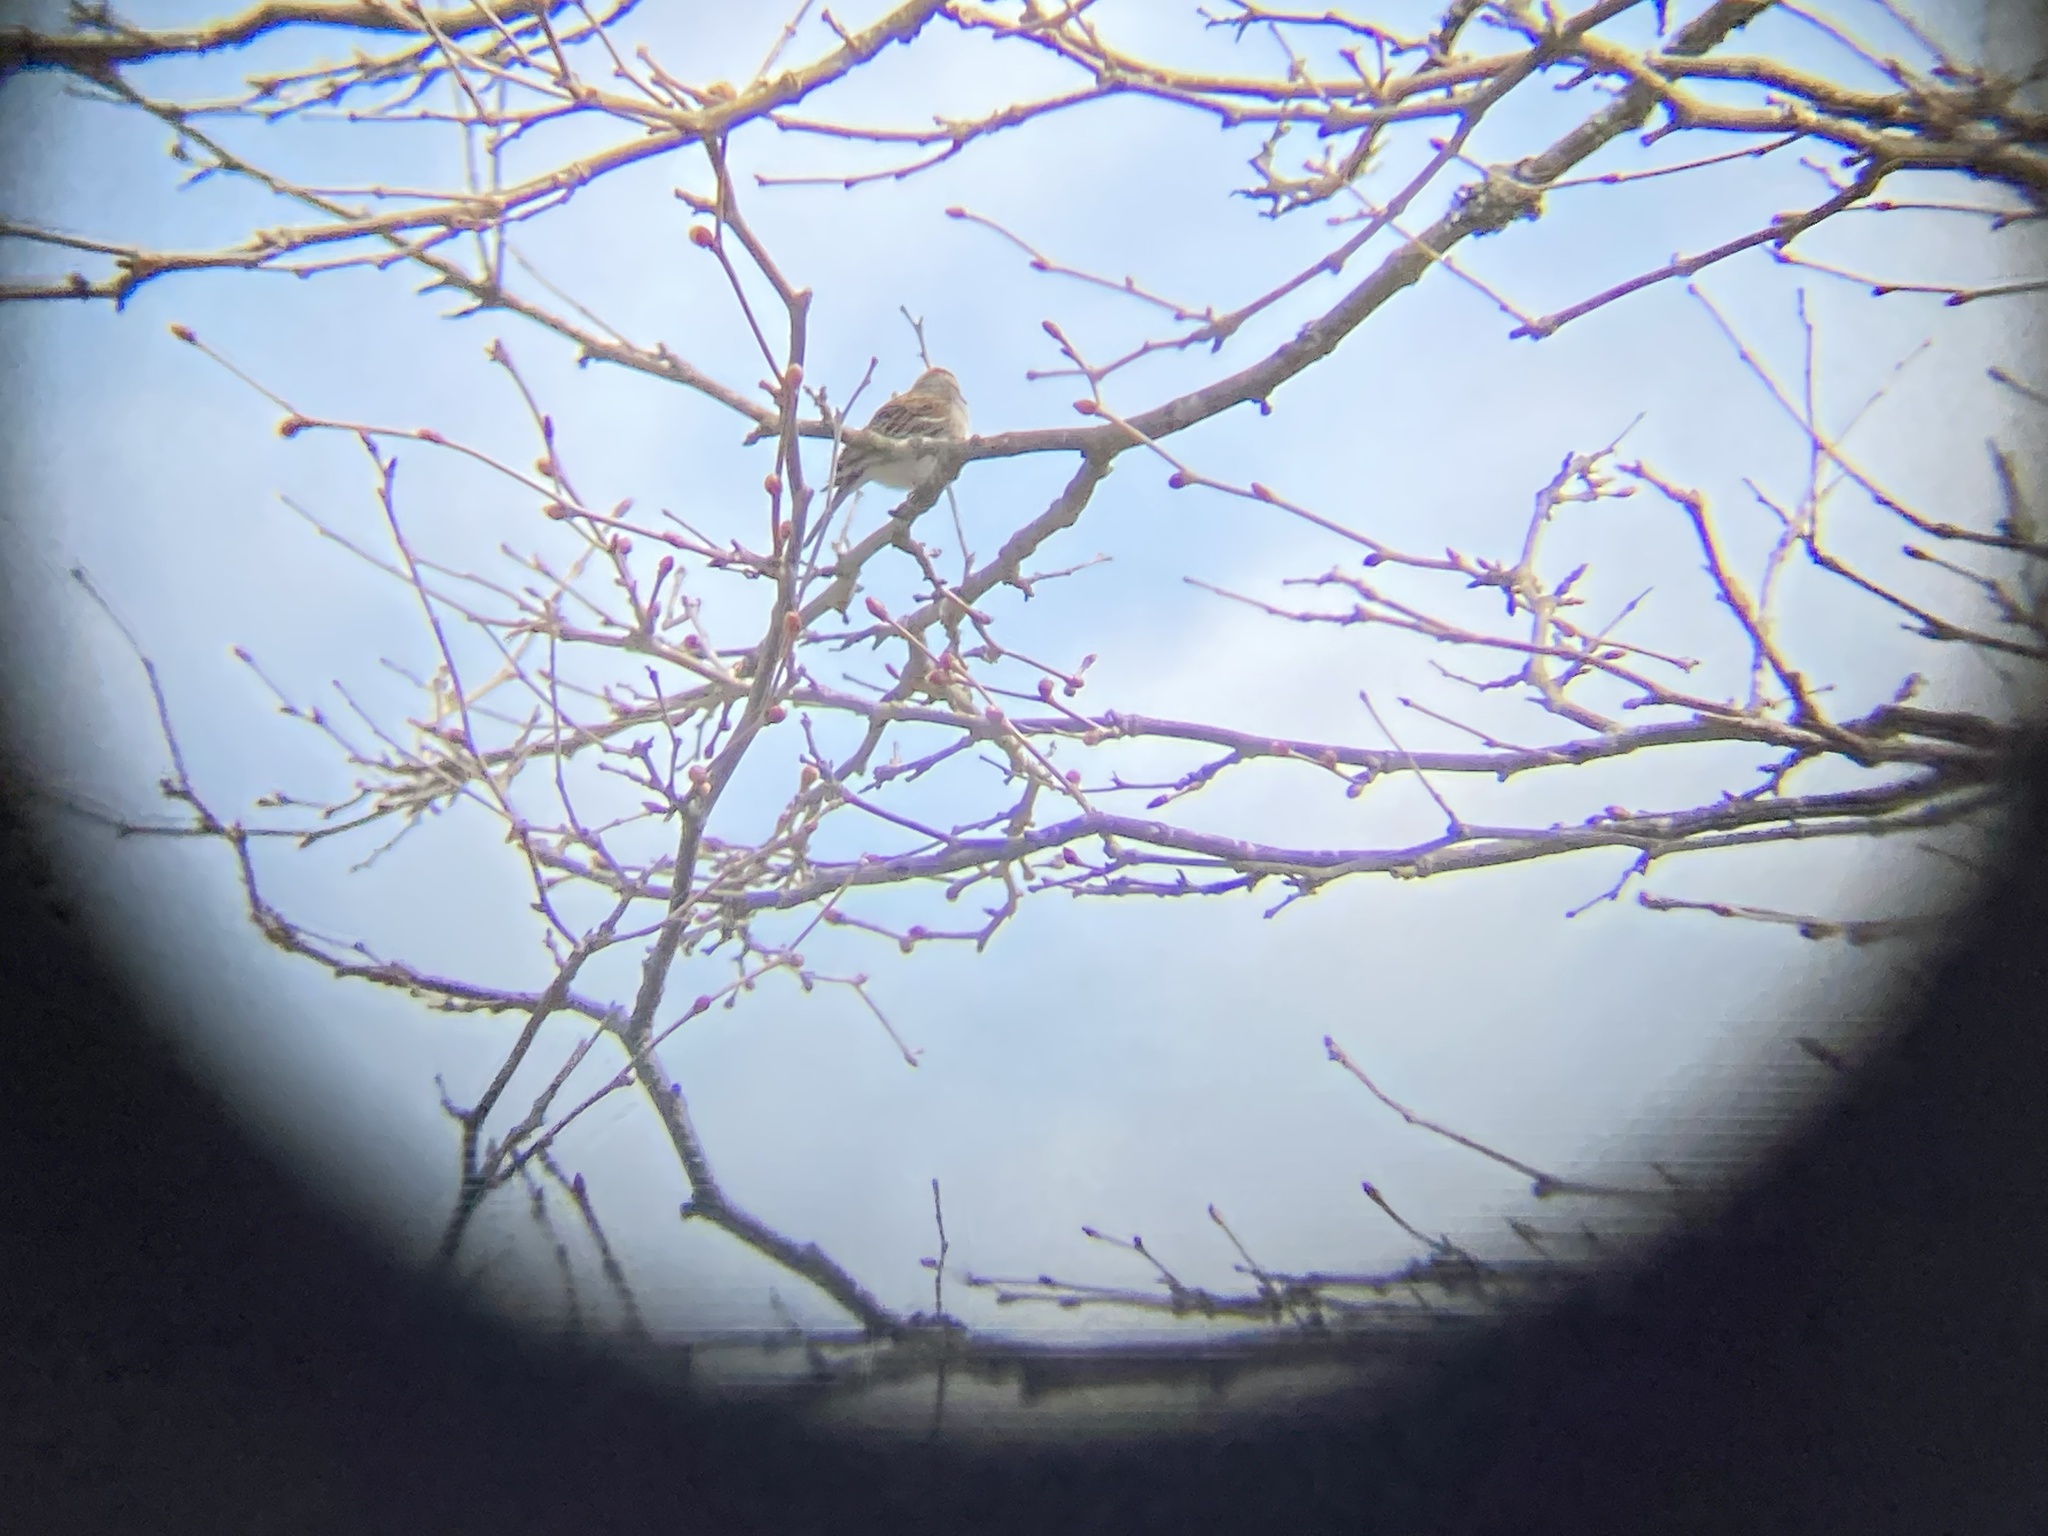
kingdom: Animalia
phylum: Chordata
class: Aves
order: Passeriformes
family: Passerellidae
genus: Spizella
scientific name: Spizella passerina
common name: Chipping sparrow
